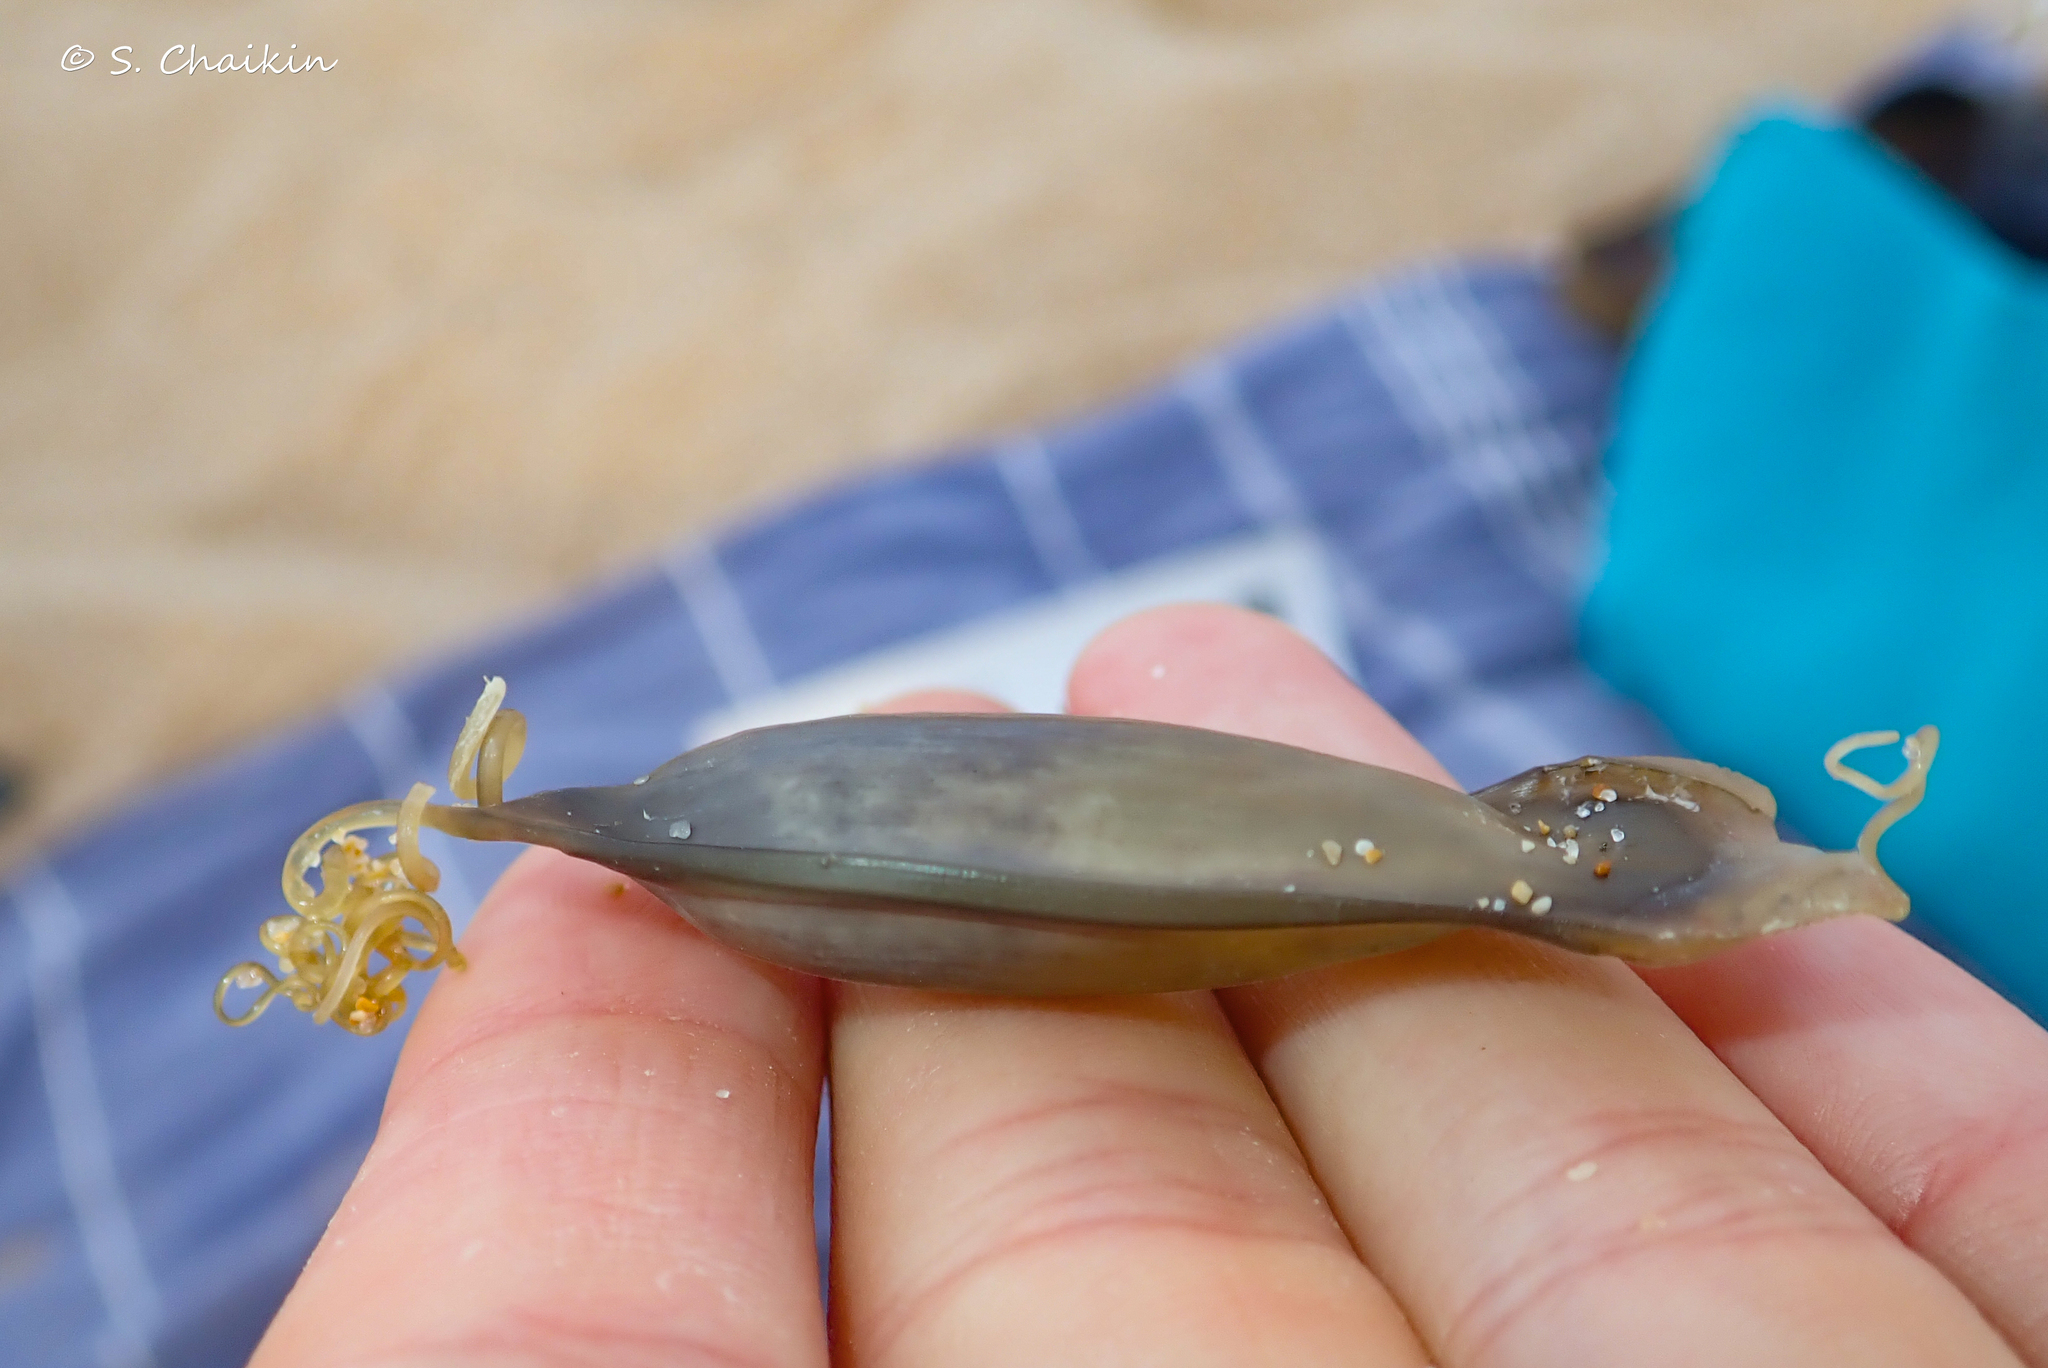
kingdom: Animalia
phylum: Chordata
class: Elasmobranchii
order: Carcharhiniformes
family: Scyliorhinidae
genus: Scyliorhinus
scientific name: Scyliorhinus canicula
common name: Lesser spotted dogfish
